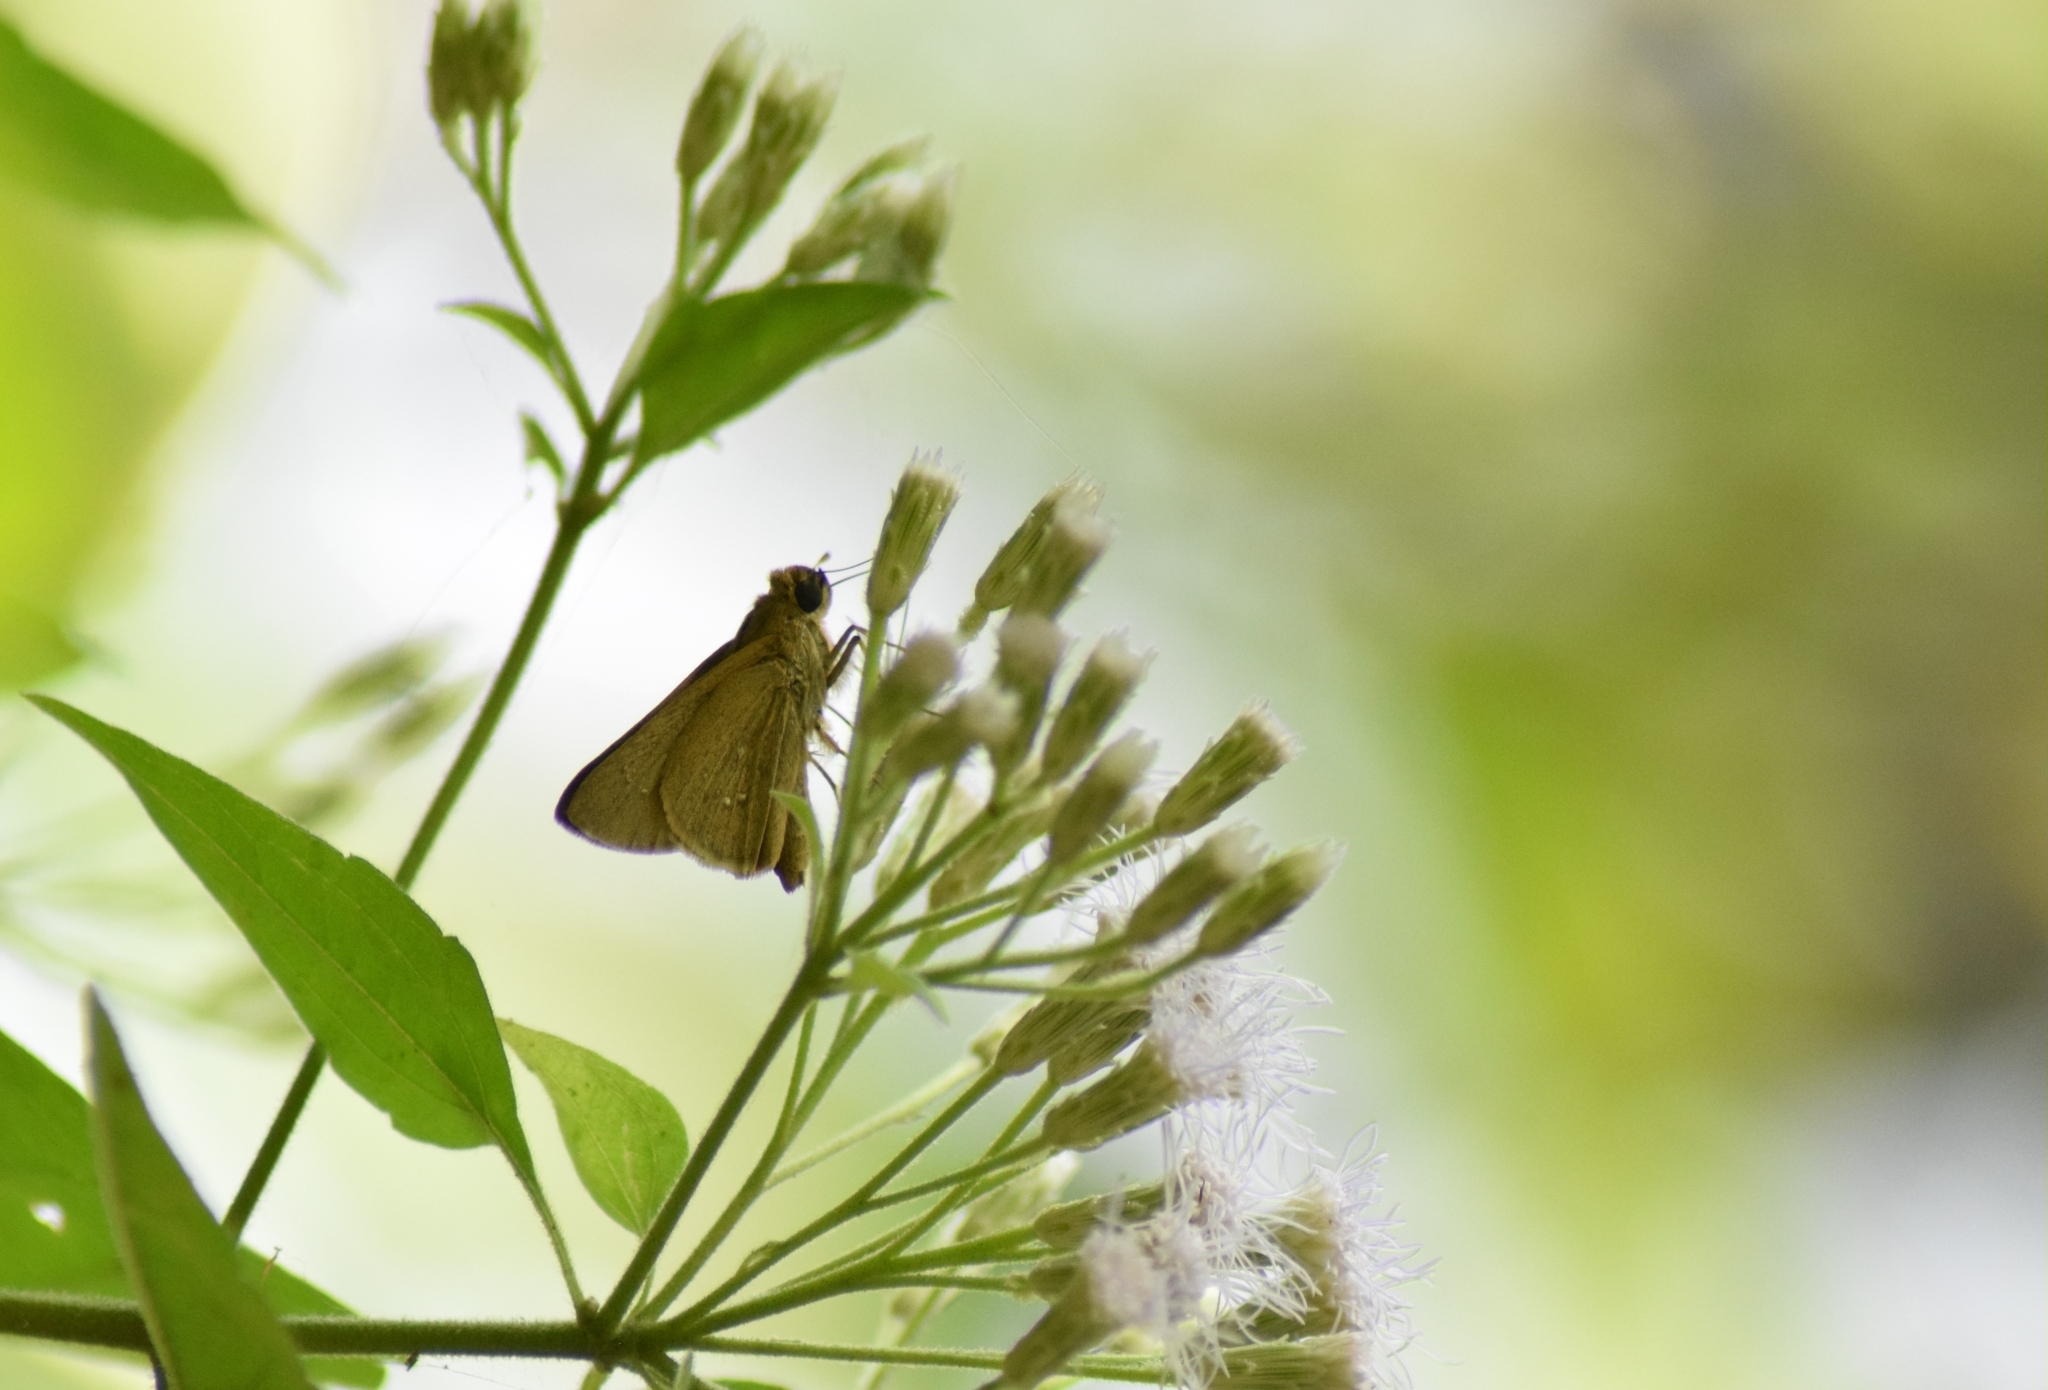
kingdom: Animalia
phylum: Arthropoda
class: Insecta
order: Lepidoptera
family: Hesperiidae
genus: Parnara
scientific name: Parnara naso
